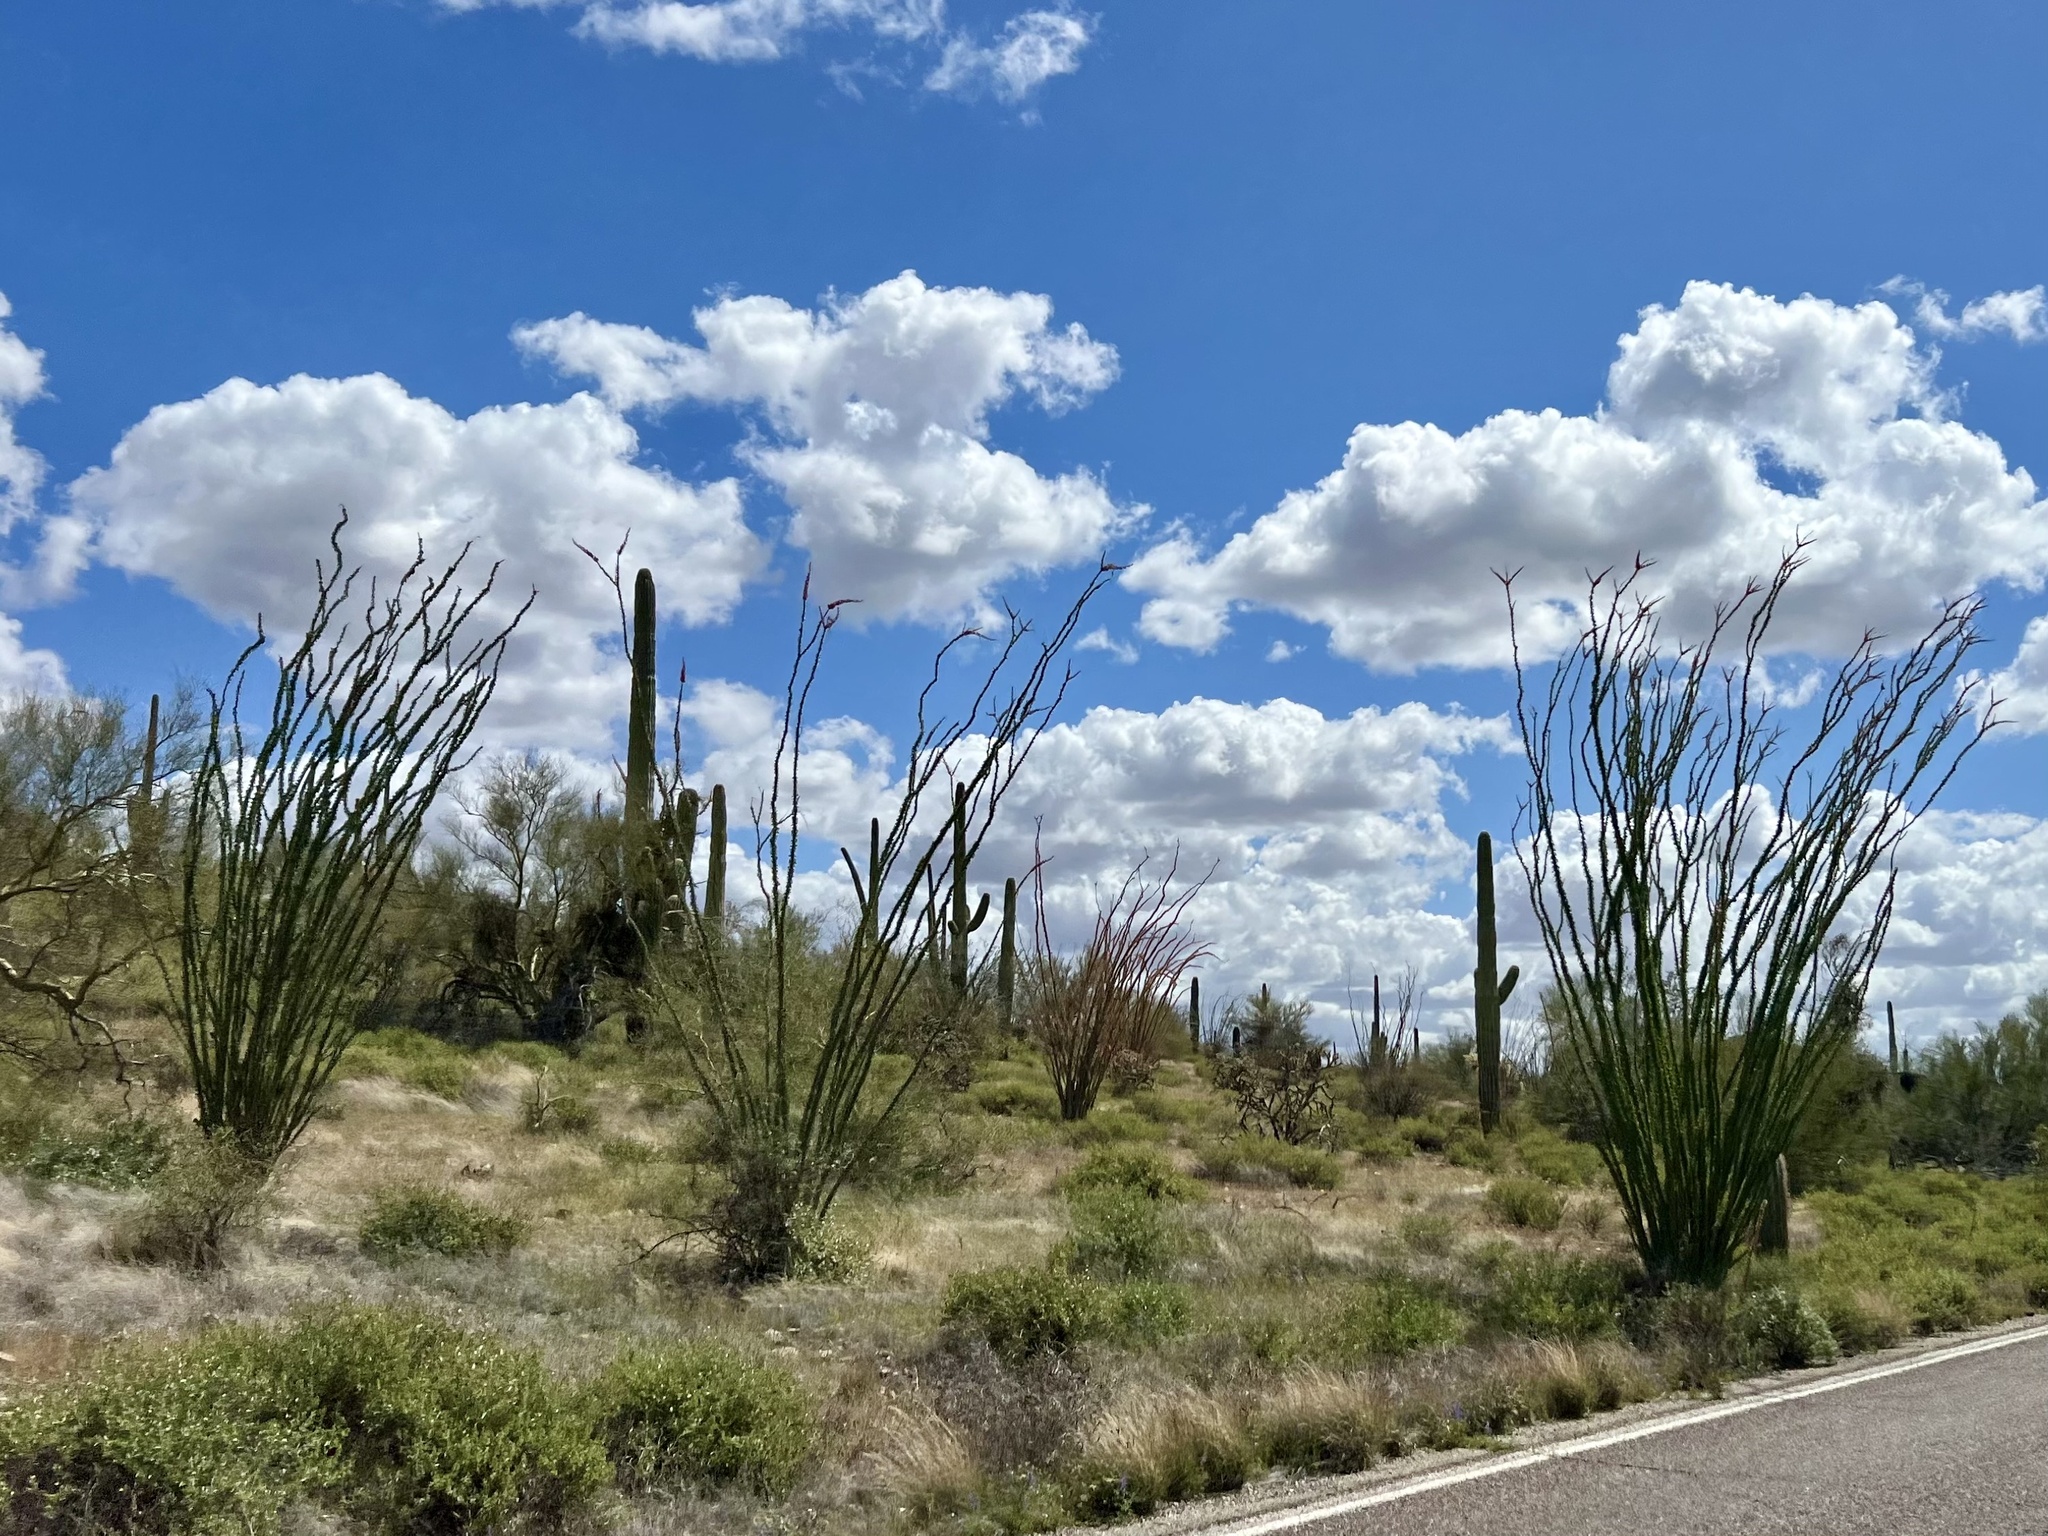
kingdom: Plantae
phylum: Tracheophyta
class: Magnoliopsida
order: Ericales
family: Fouquieriaceae
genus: Fouquieria
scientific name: Fouquieria splendens
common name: Vine-cactus
